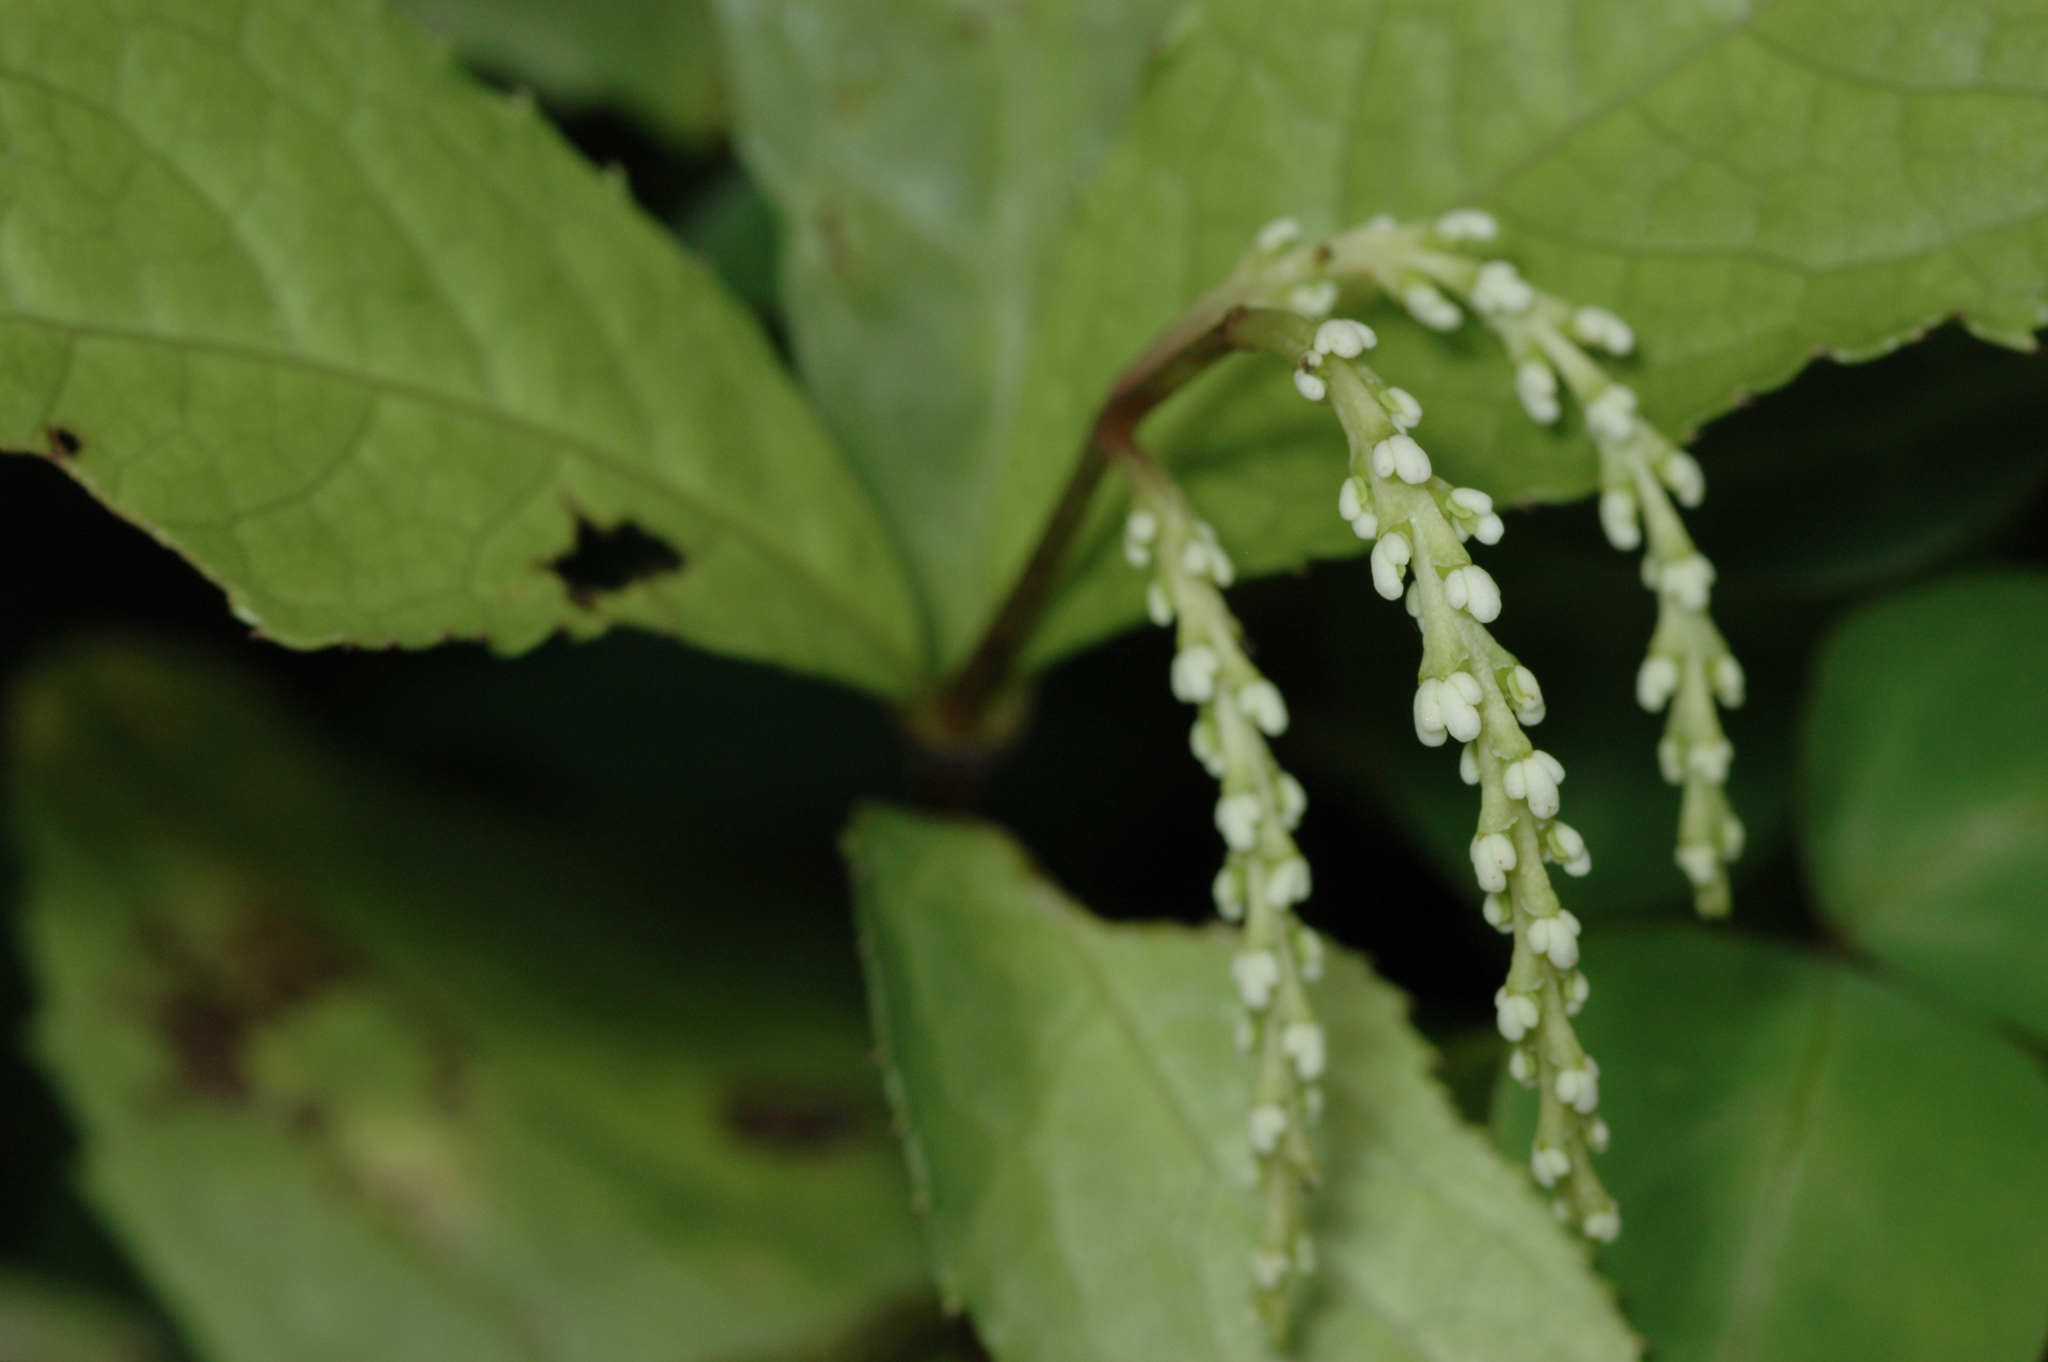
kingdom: Plantae
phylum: Tracheophyta
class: Magnoliopsida
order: Chloranthales
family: Chloranthaceae
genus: Chloranthus
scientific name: Chloranthus oldhamii
